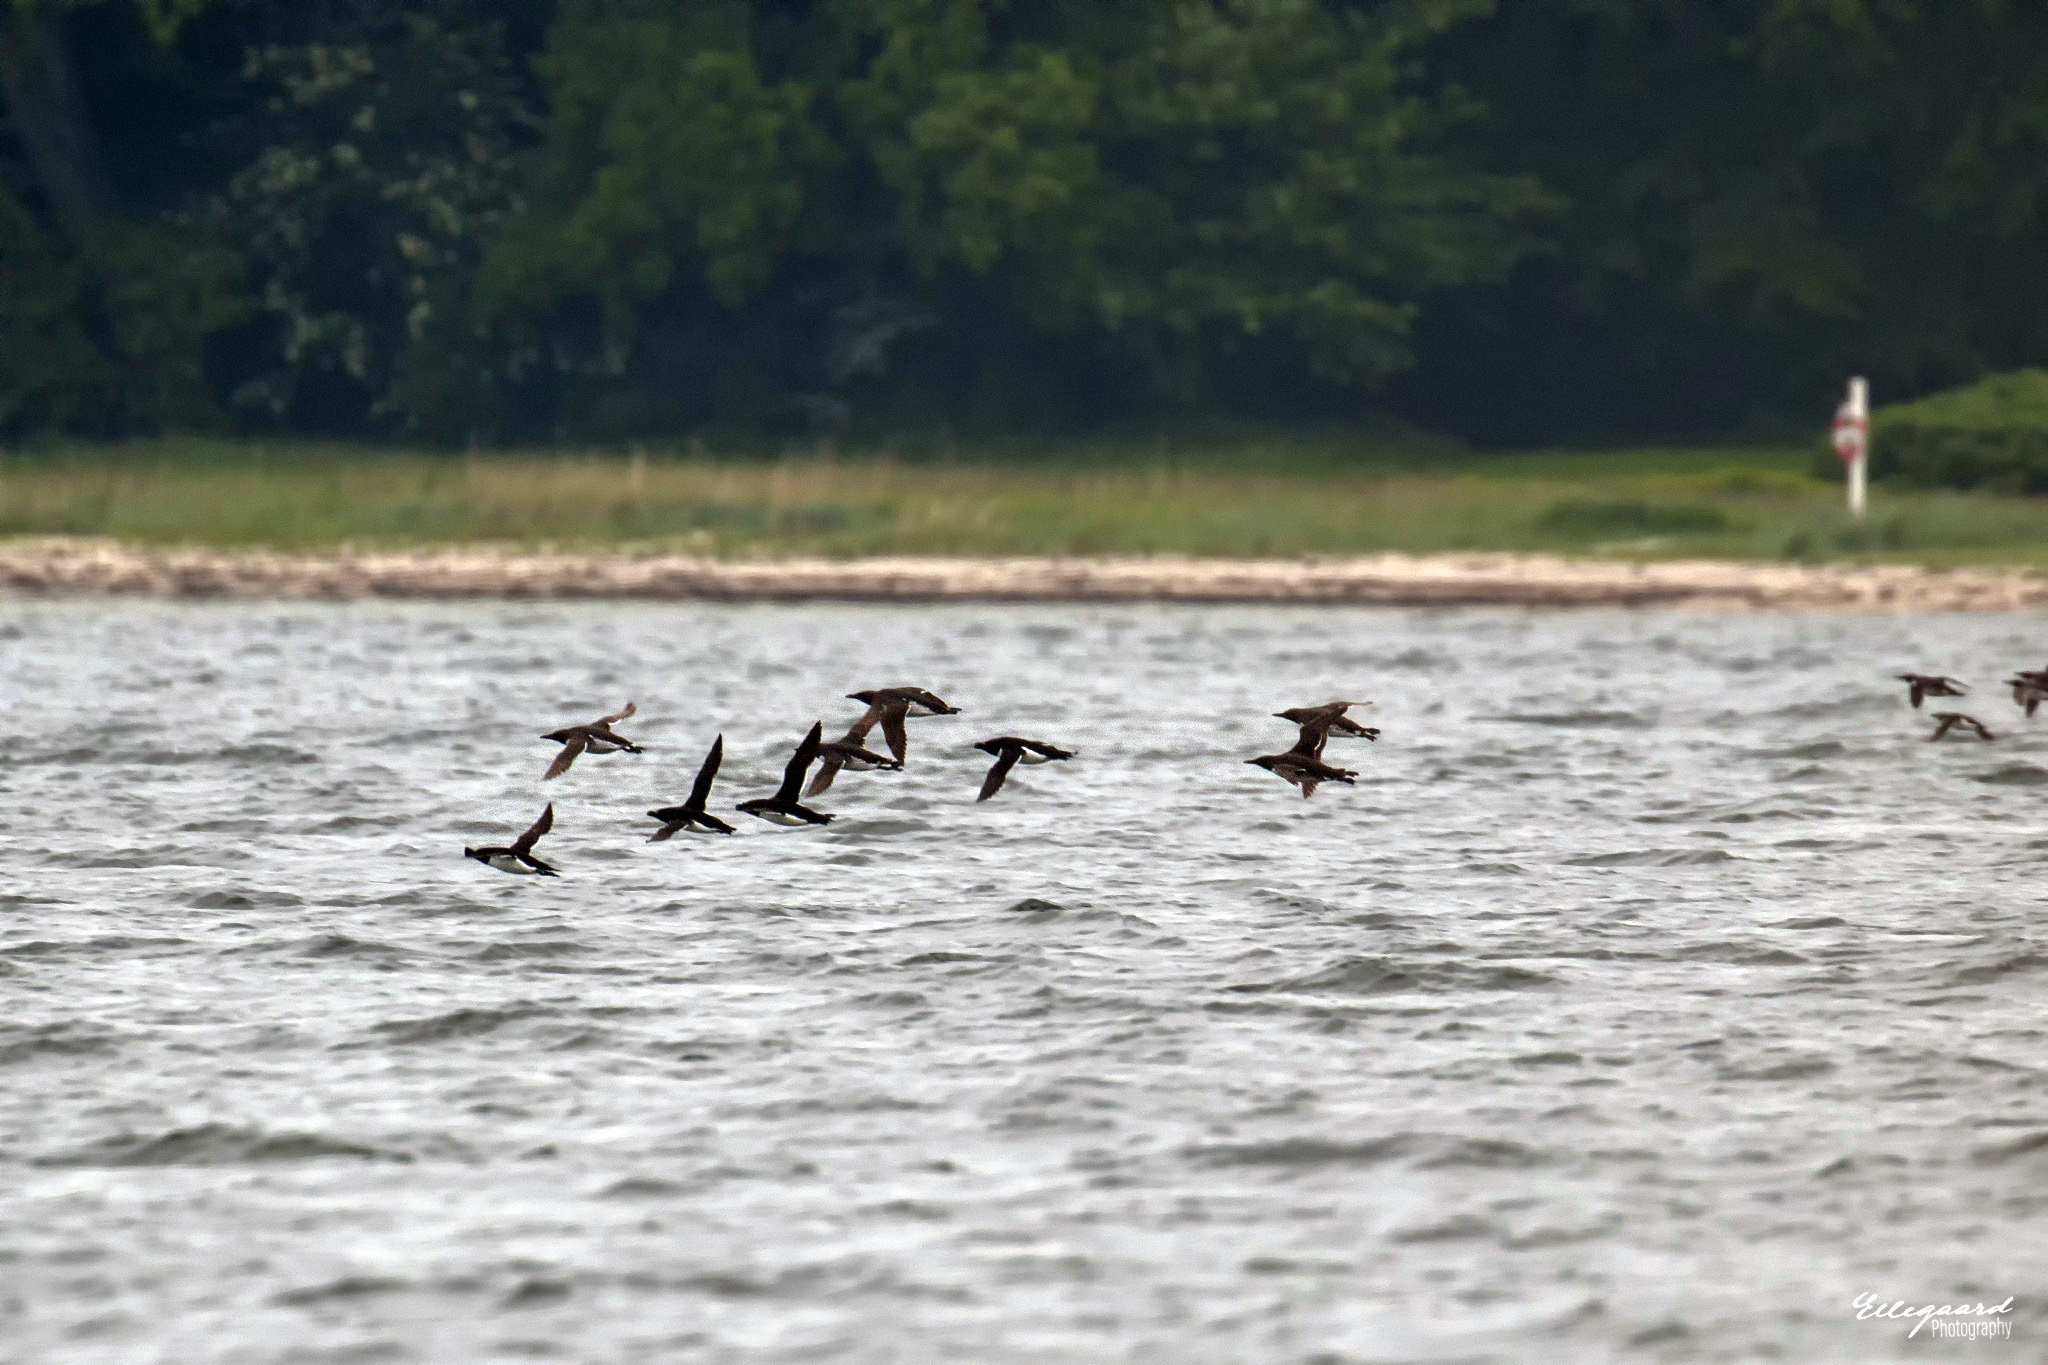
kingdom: Animalia
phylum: Chordata
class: Aves
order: Charadriiformes
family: Alcidae
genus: Alca
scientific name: Alca torda
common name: Razorbill
